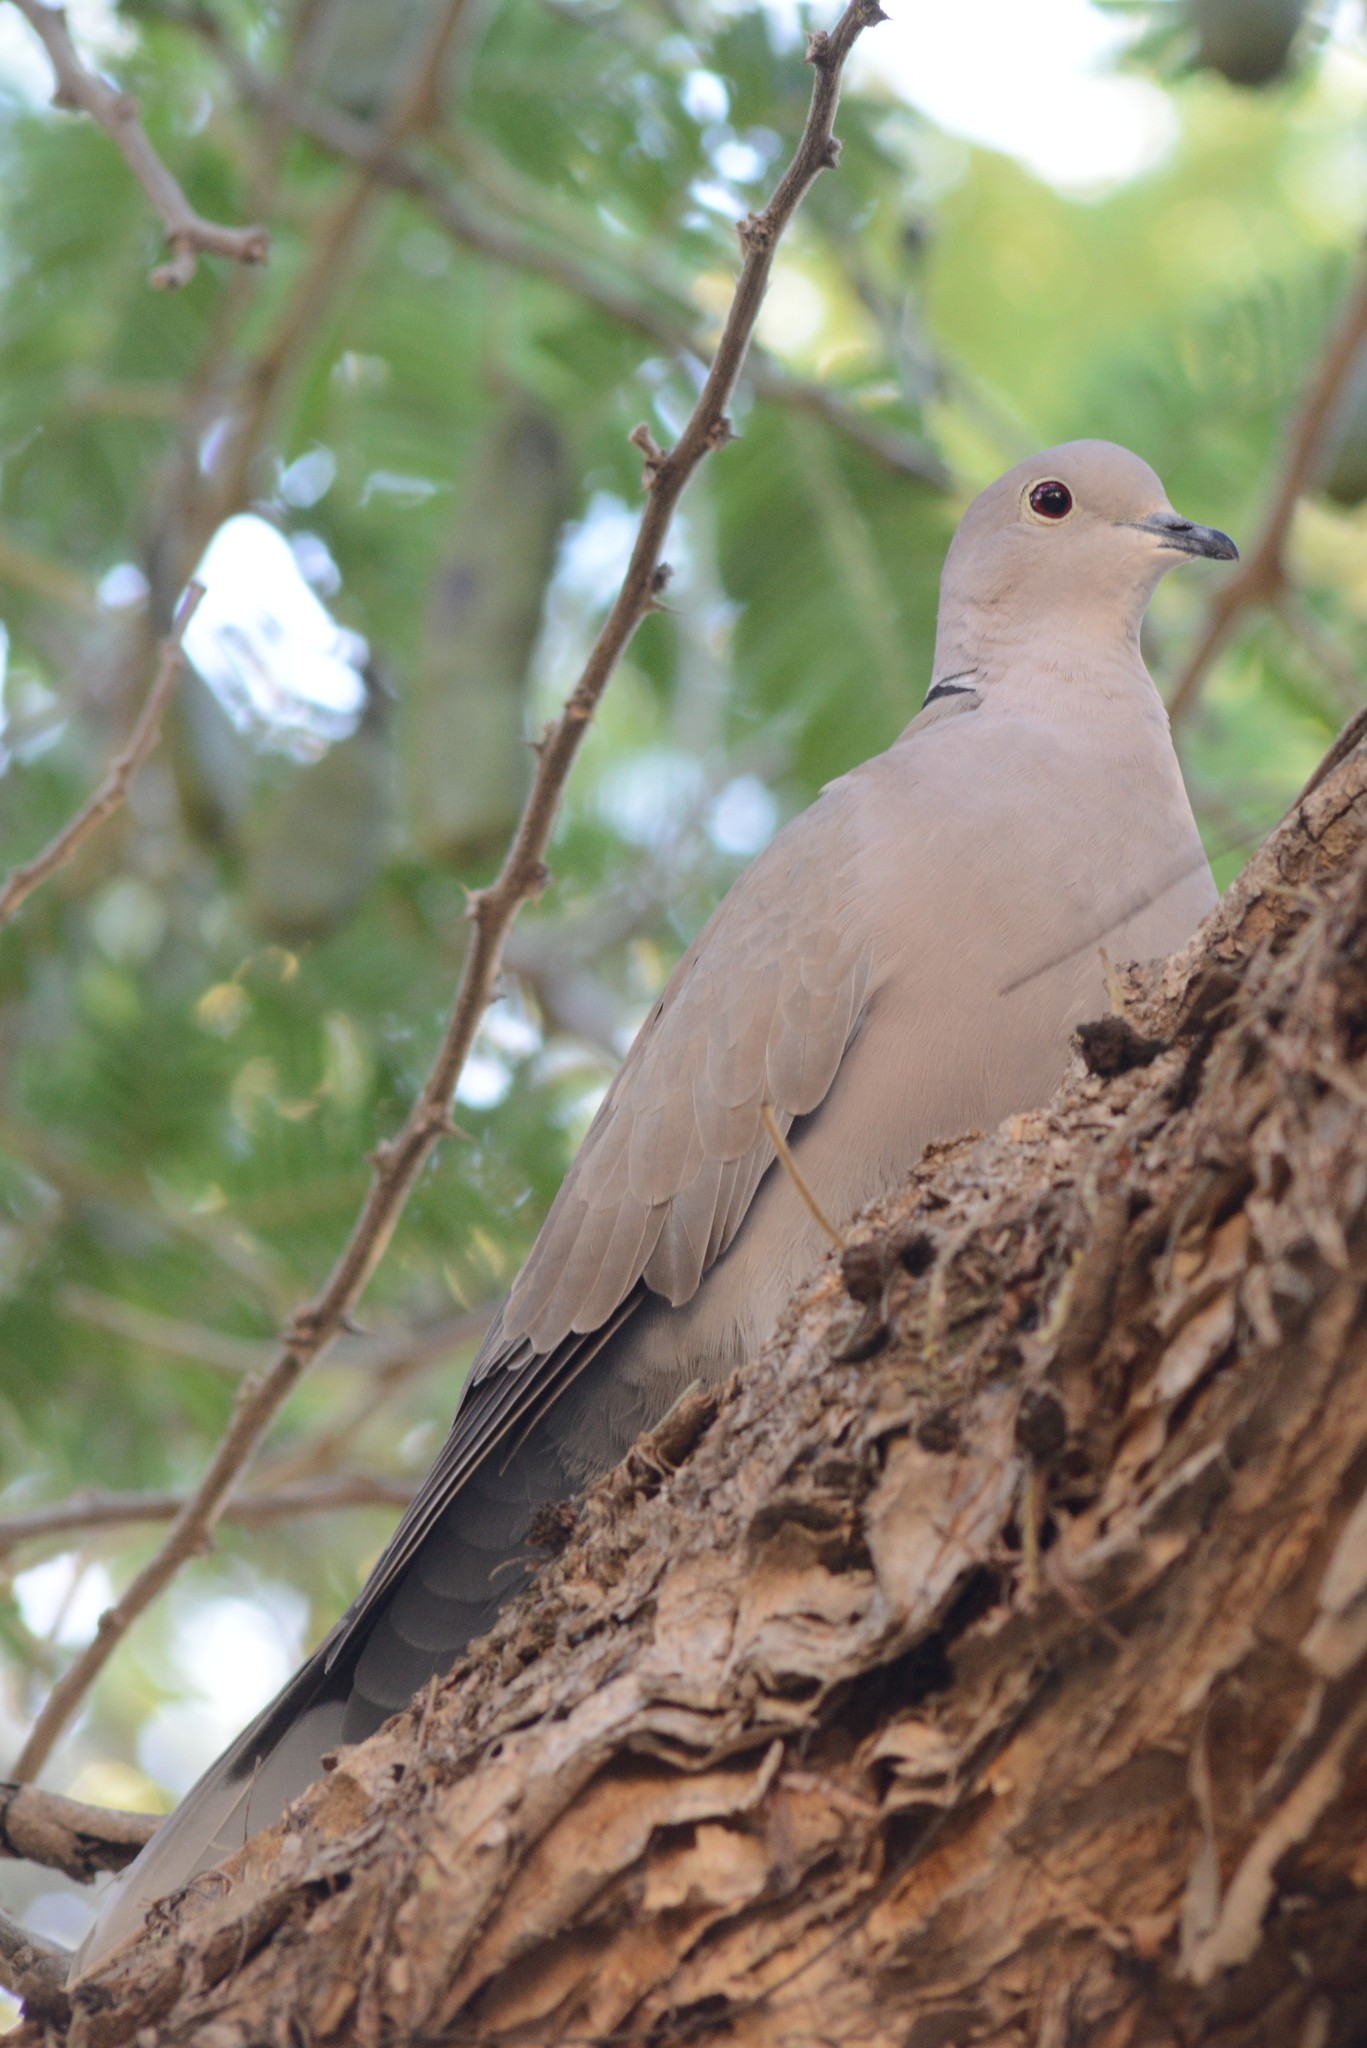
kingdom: Animalia
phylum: Chordata
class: Aves
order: Columbiformes
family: Columbidae
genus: Streptopelia
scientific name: Streptopelia decaocto
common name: Eurasian collared dove
